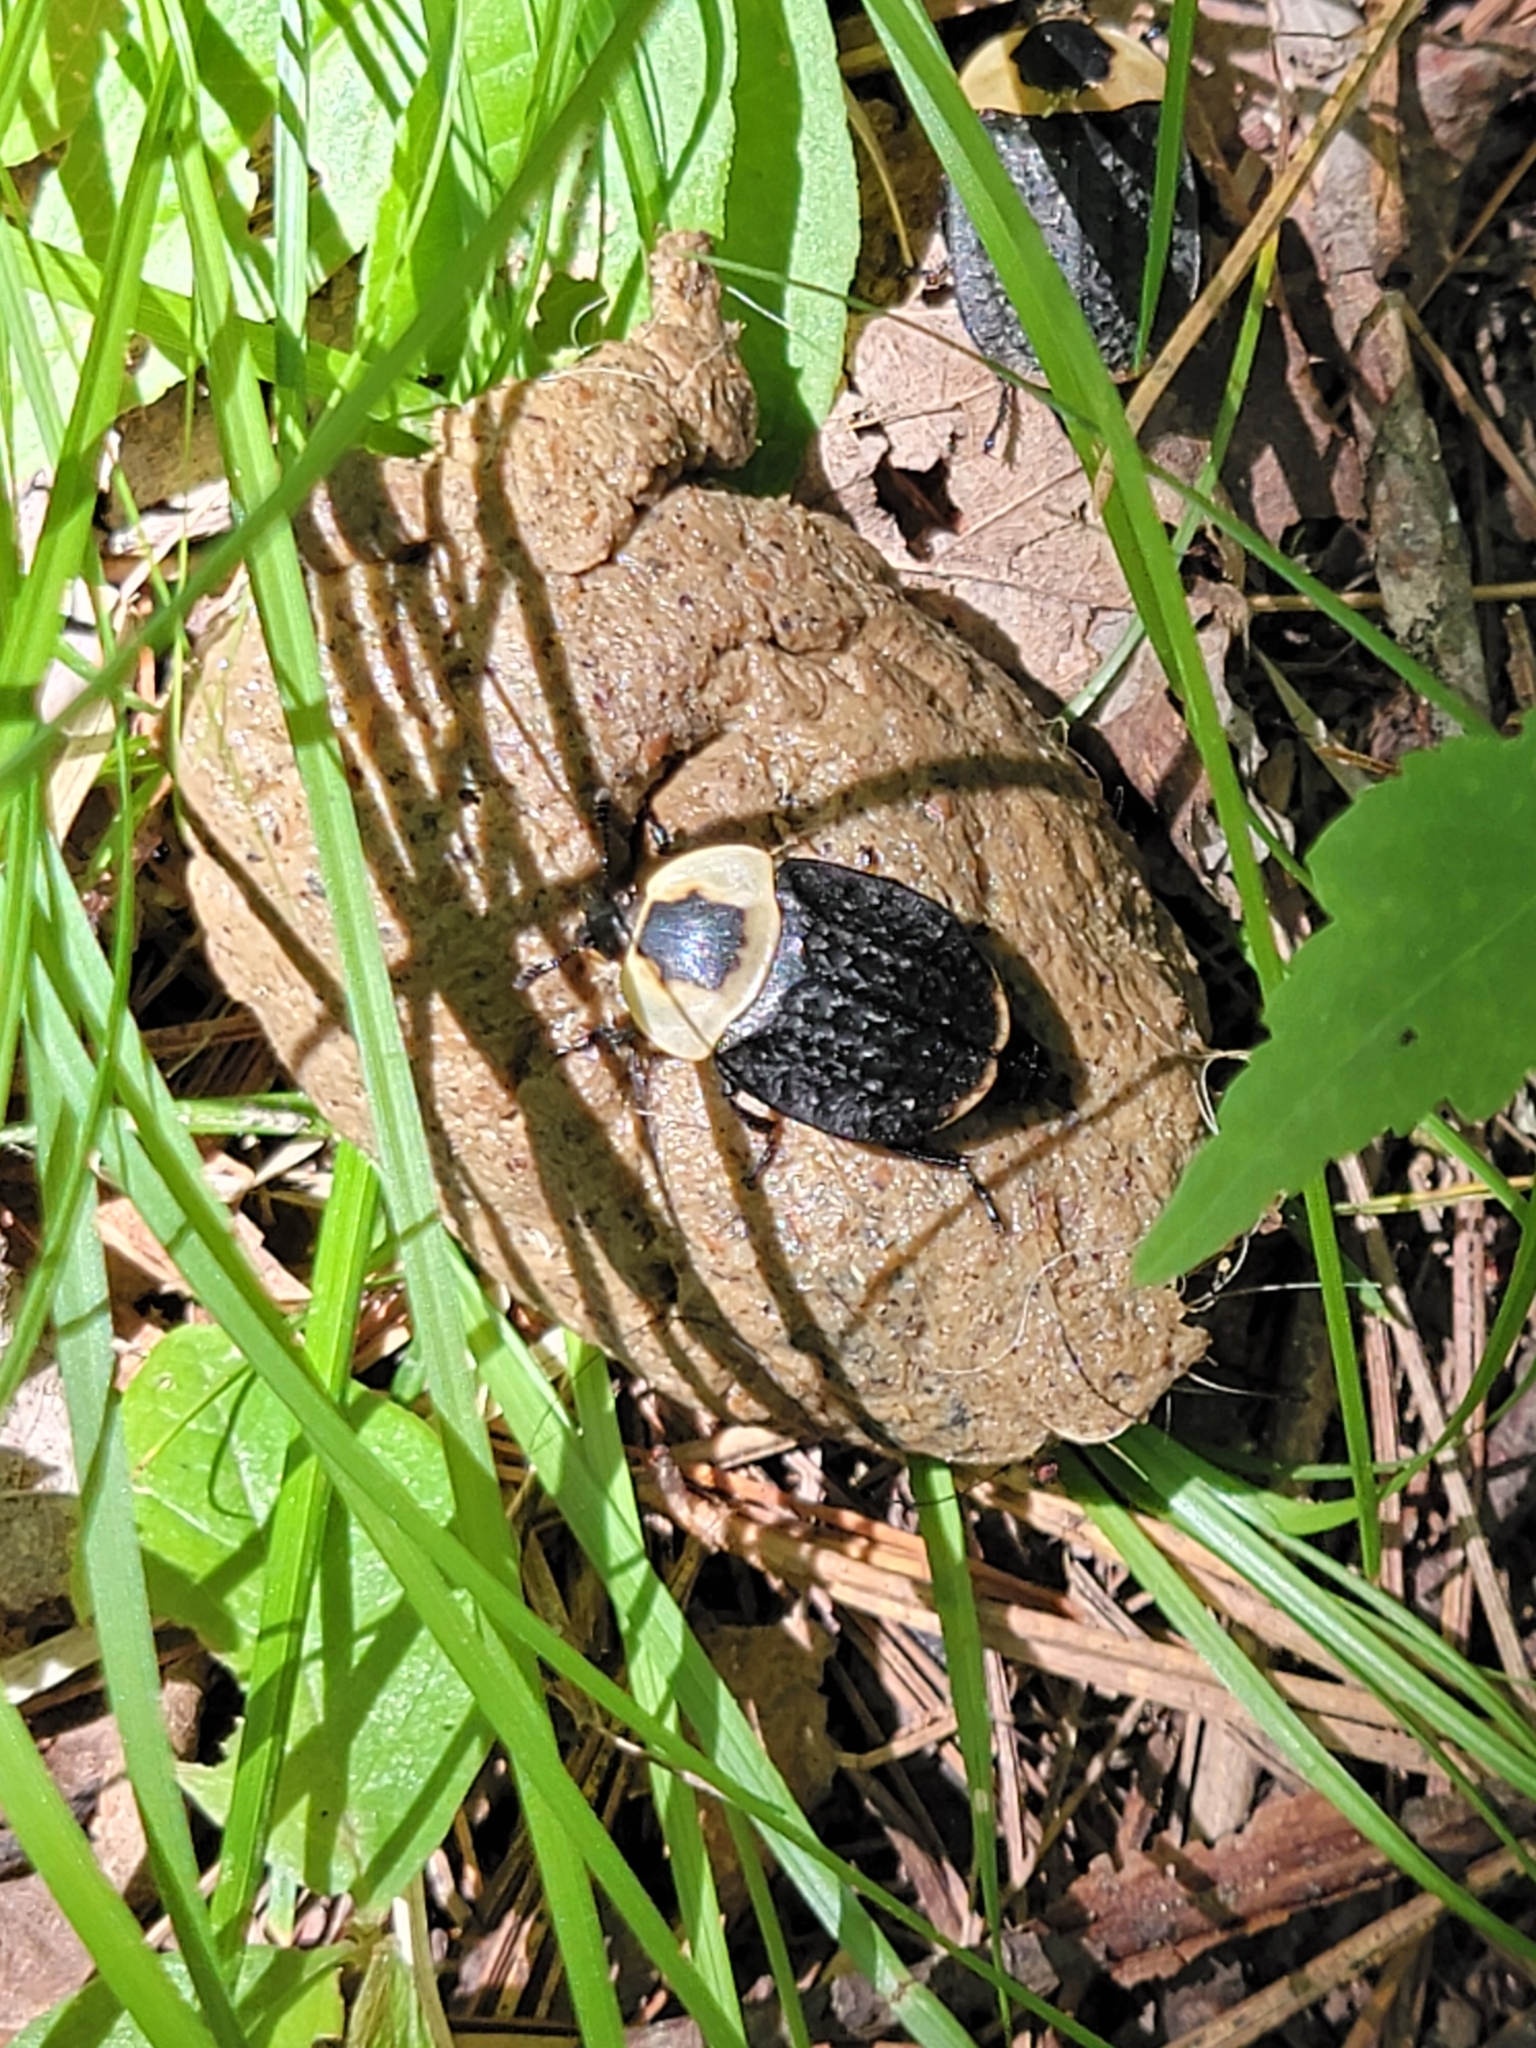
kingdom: Animalia
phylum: Arthropoda
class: Insecta
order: Coleoptera
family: Staphylinidae
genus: Necrophila
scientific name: Necrophila americana
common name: American carrion beetle
